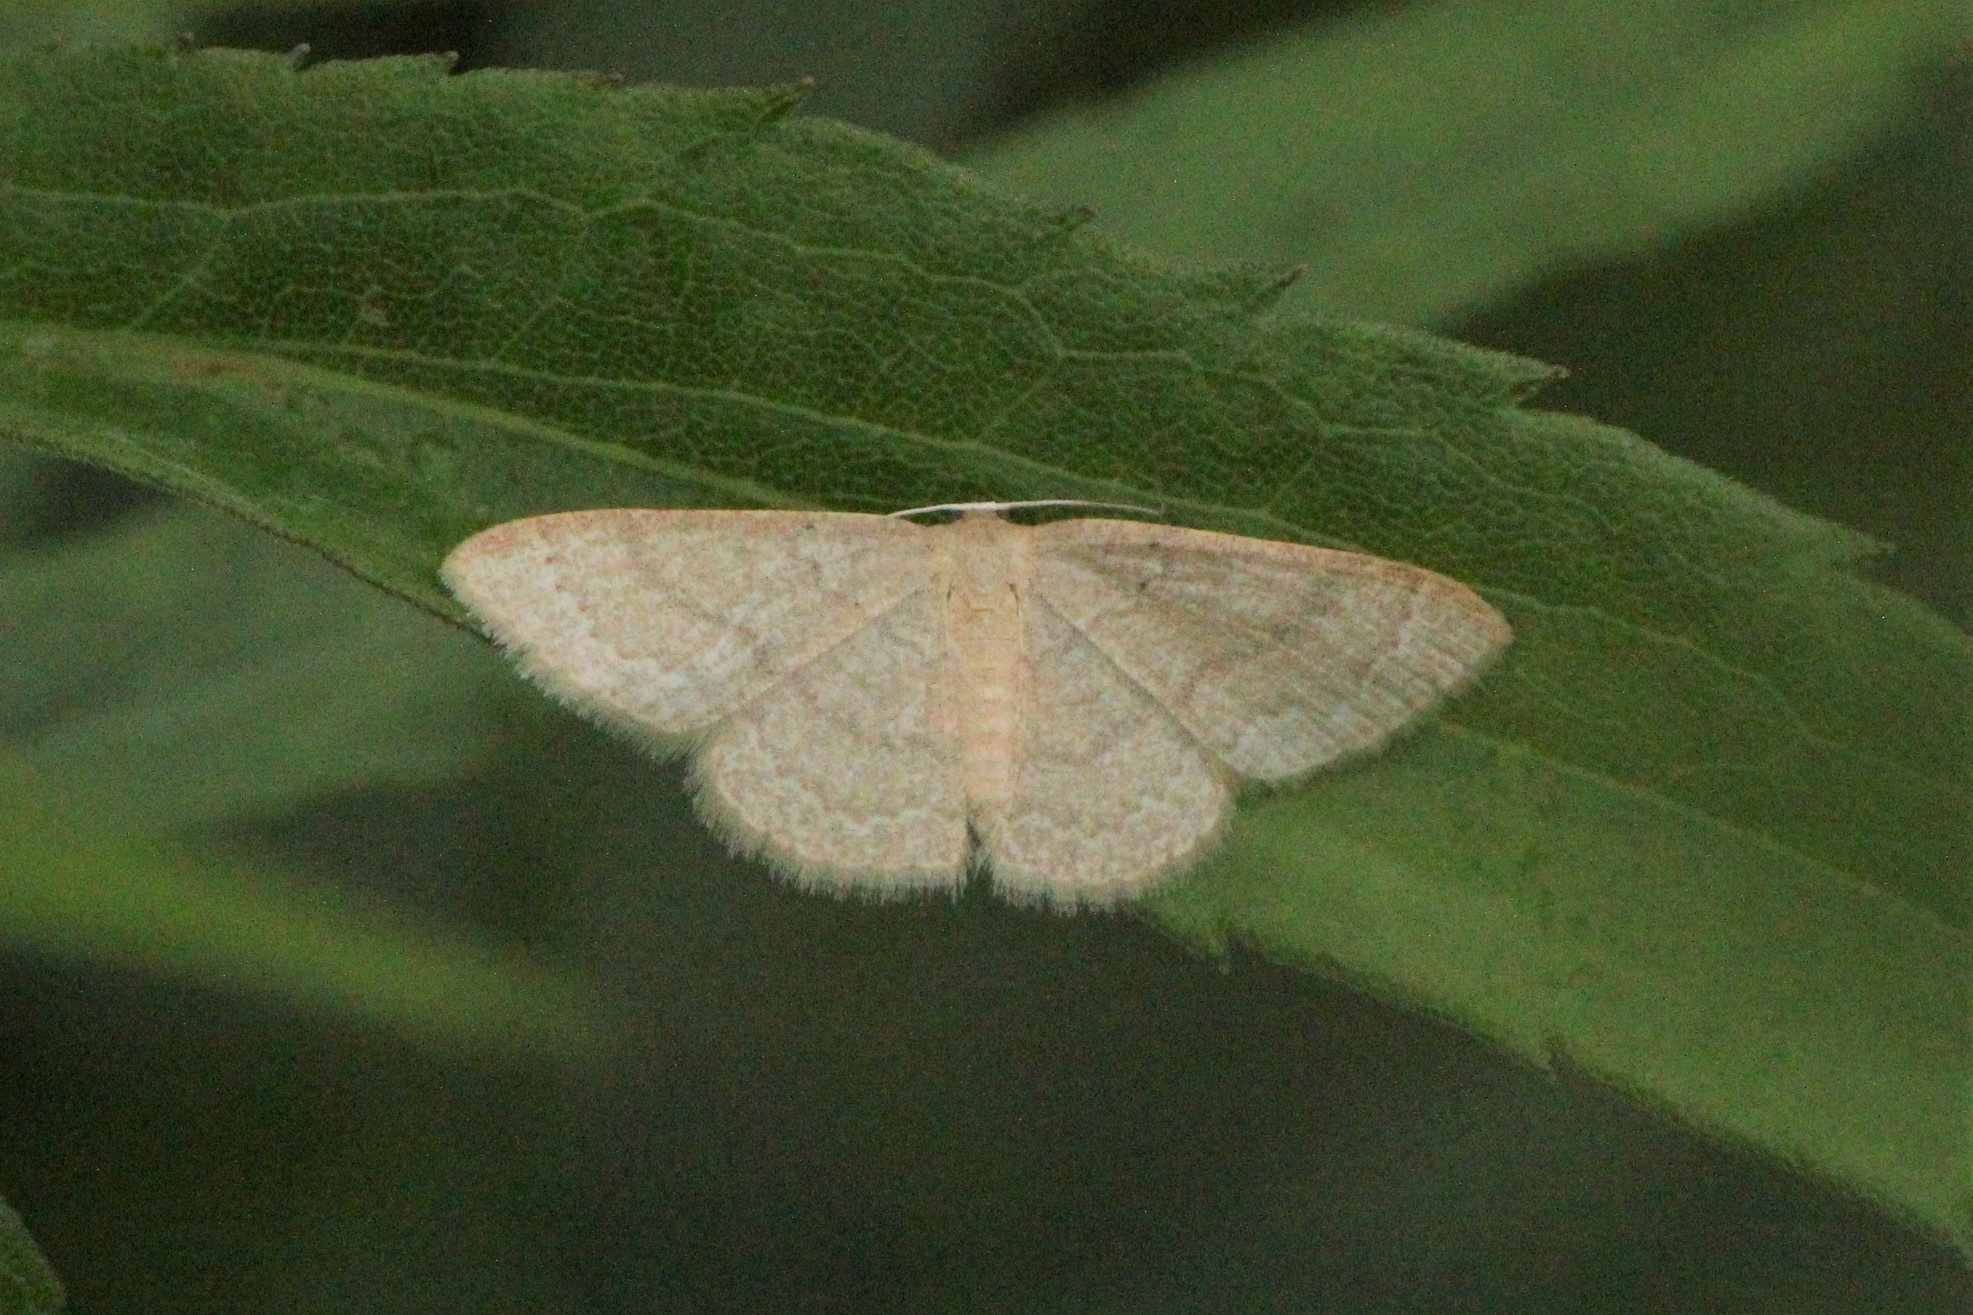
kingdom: Animalia
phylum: Arthropoda
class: Insecta
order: Lepidoptera
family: Geometridae
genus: Pleuroprucha
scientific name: Pleuroprucha insulsaria
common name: Common tan wave
